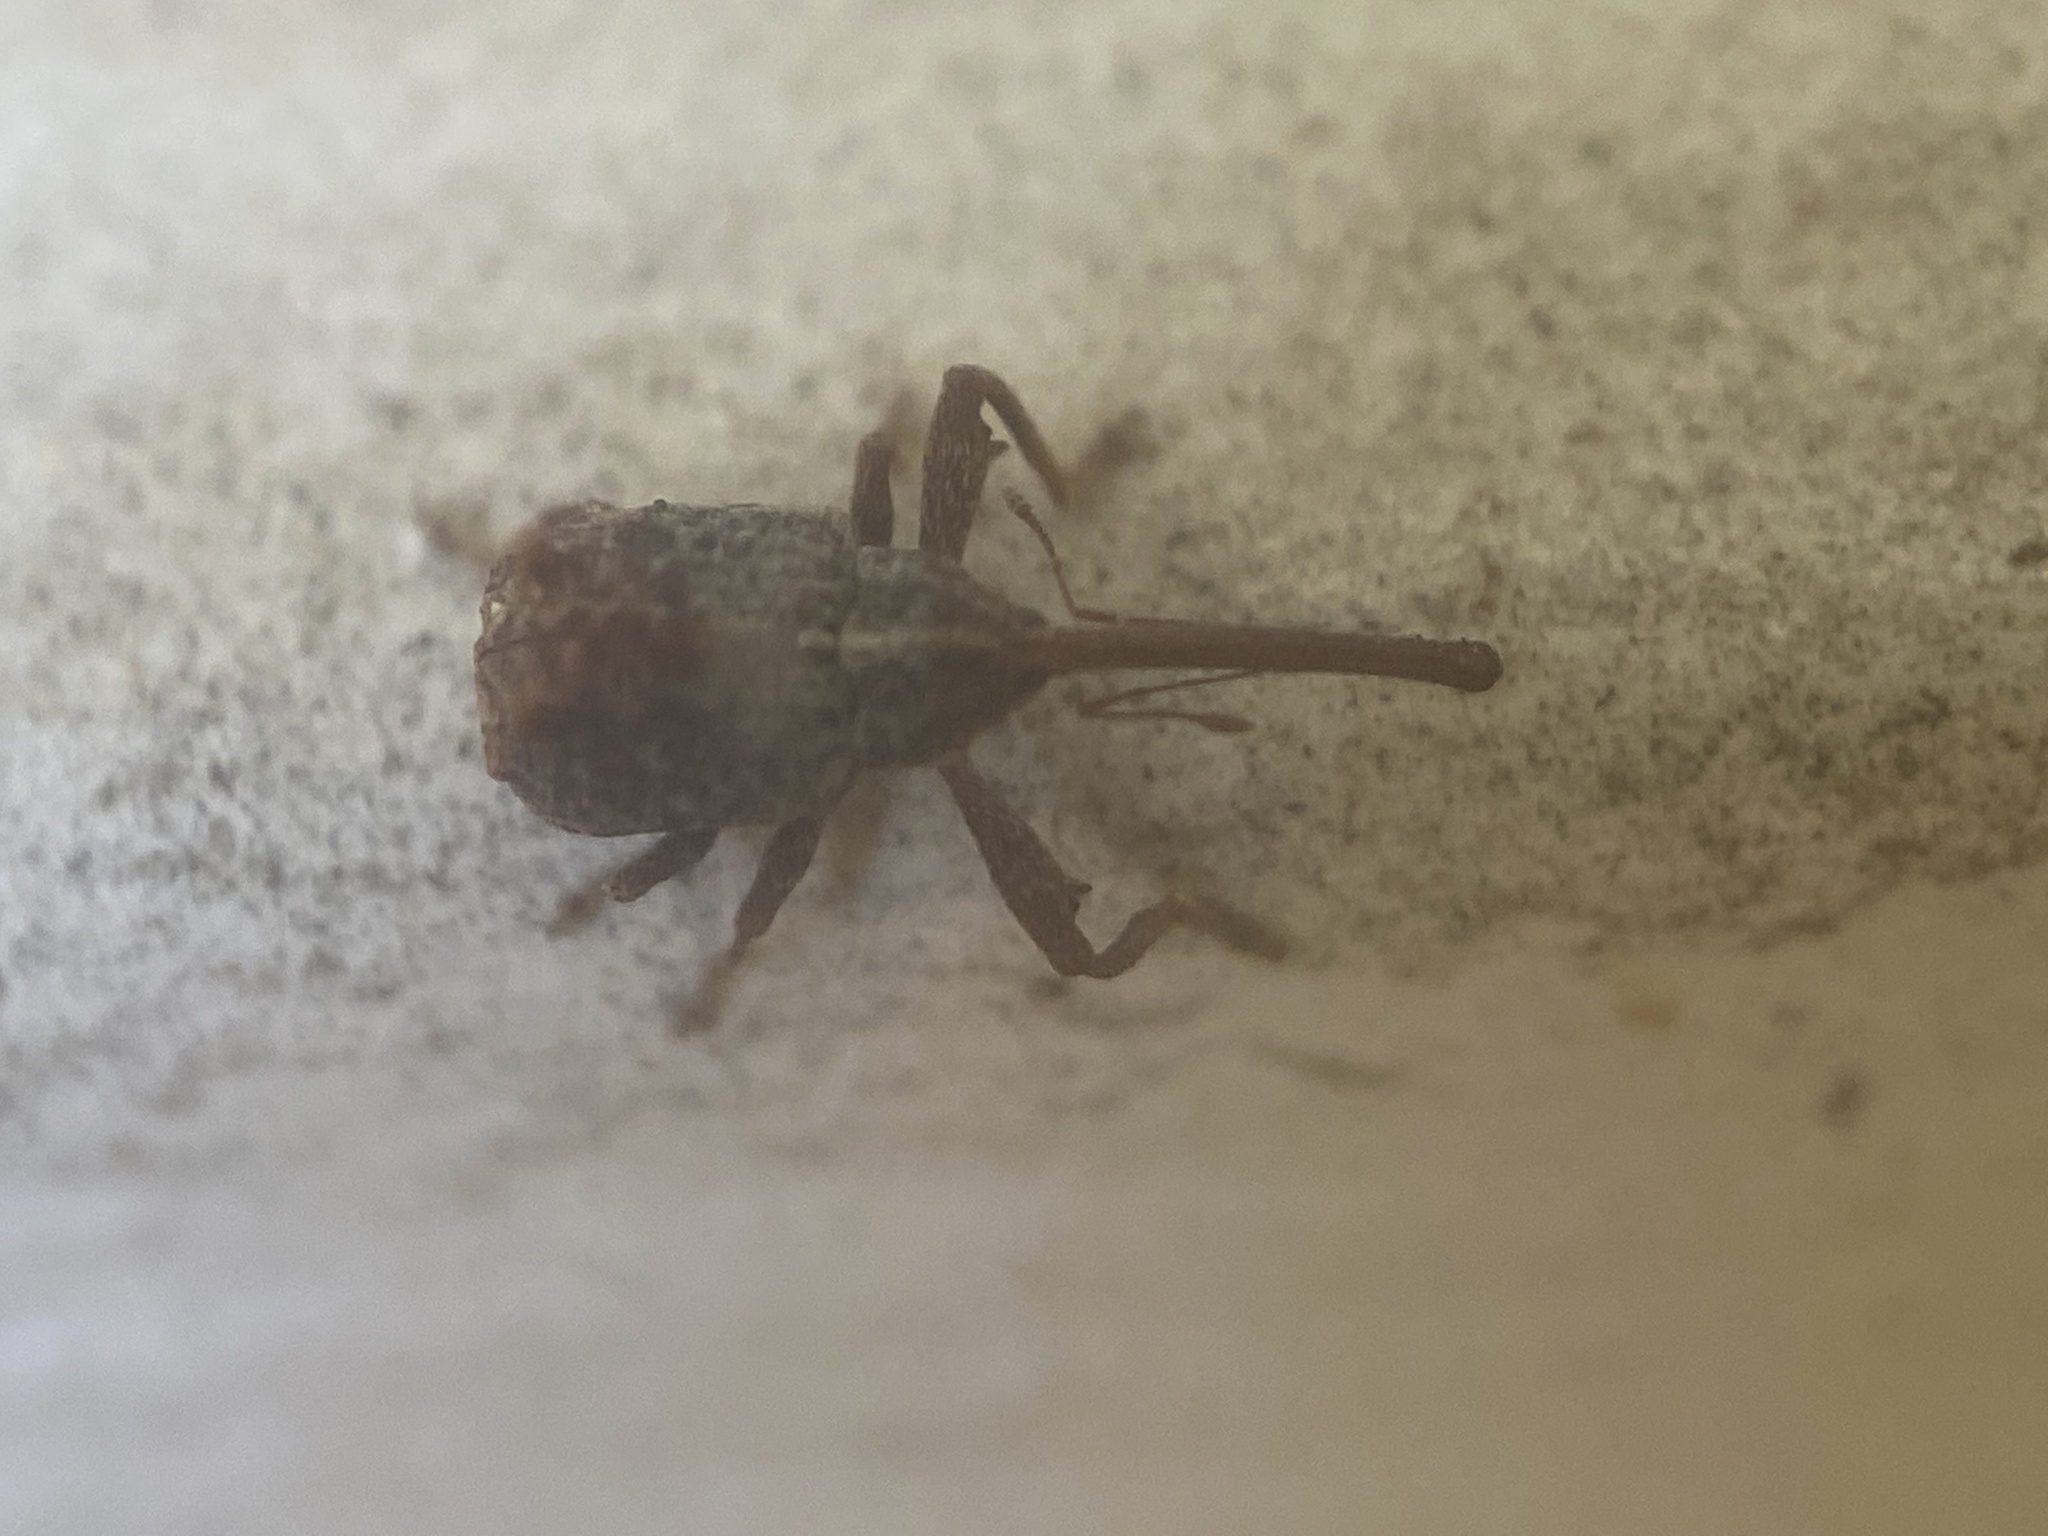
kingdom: Animalia
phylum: Arthropoda
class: Insecta
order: Coleoptera
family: Curculionidae
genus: Anthonomus
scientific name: Anthonomus quadrigibbus
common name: Apple curculio
